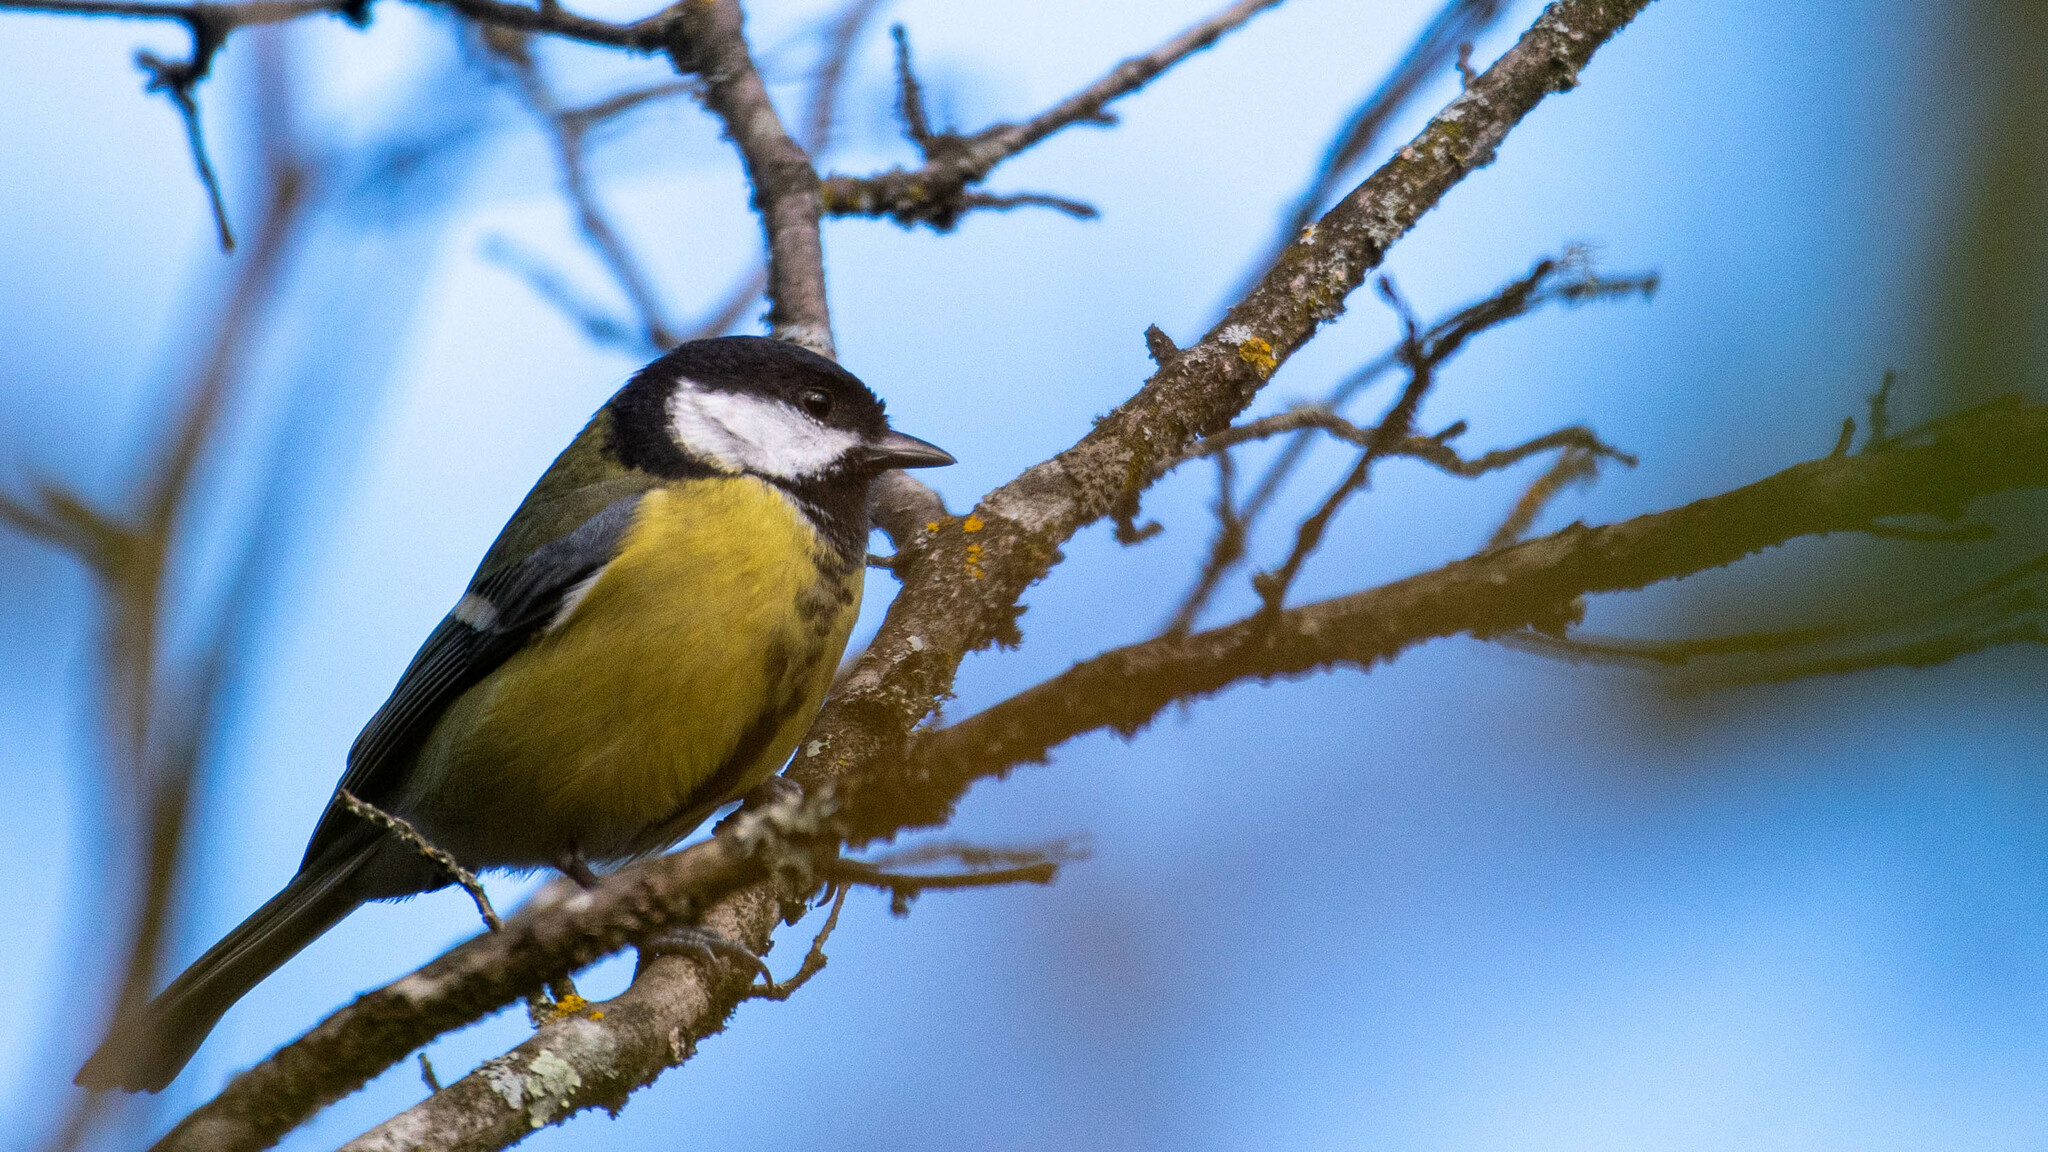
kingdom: Animalia
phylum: Chordata
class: Aves
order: Passeriformes
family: Paridae
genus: Parus
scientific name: Parus major
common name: Great tit
